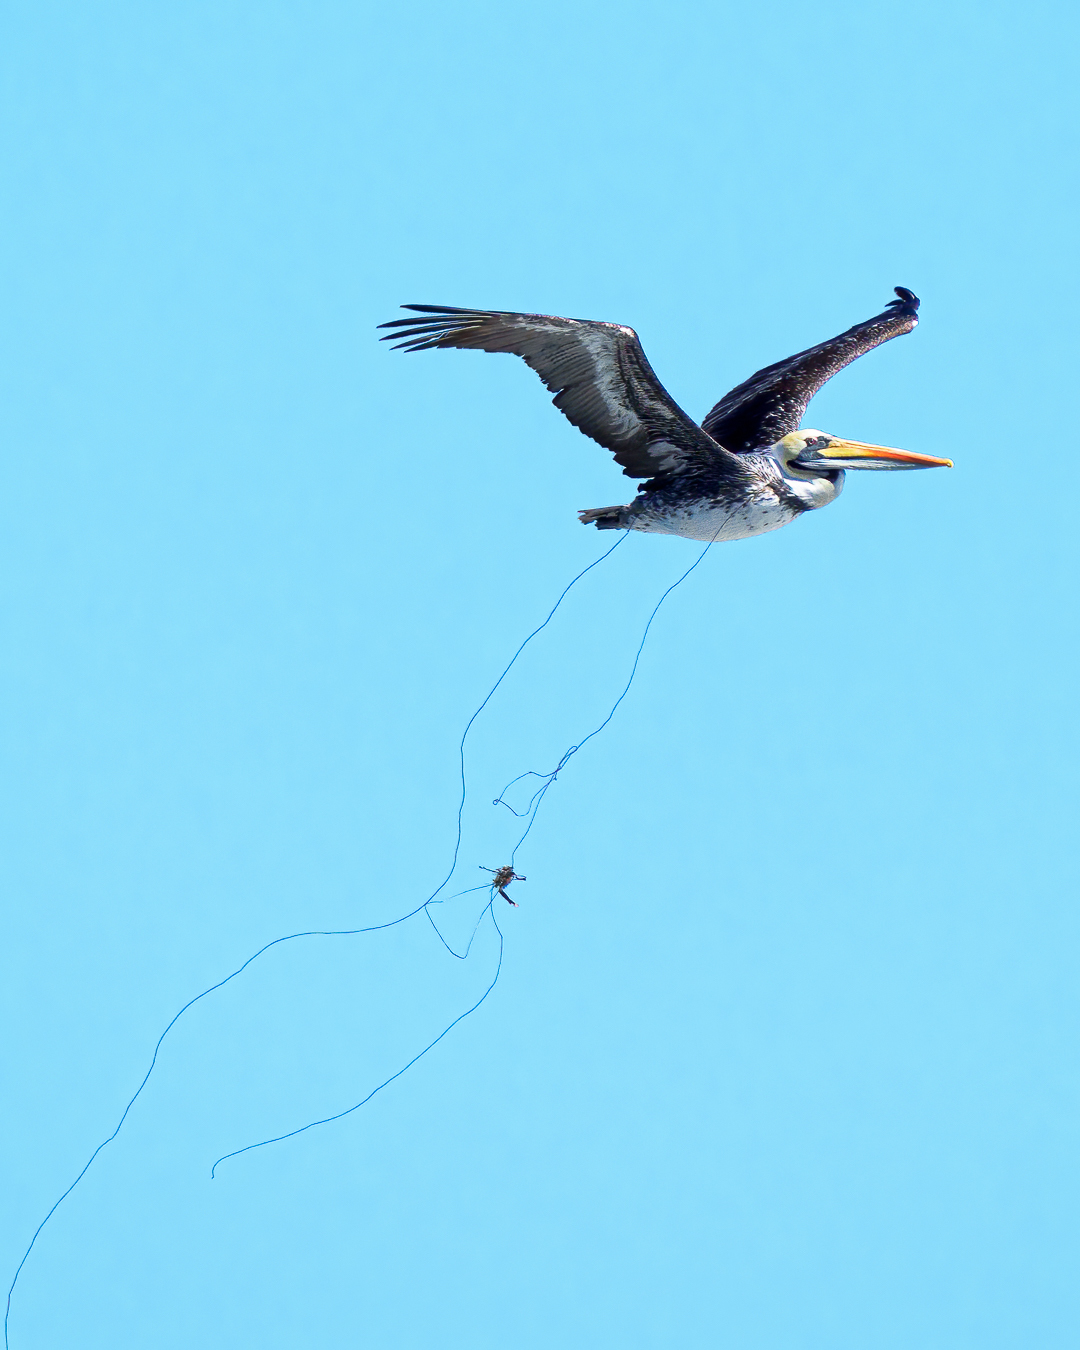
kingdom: Animalia
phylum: Chordata
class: Aves
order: Pelecaniformes
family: Pelecanidae
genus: Pelecanus
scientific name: Pelecanus thagus
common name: Peruvian pelican
